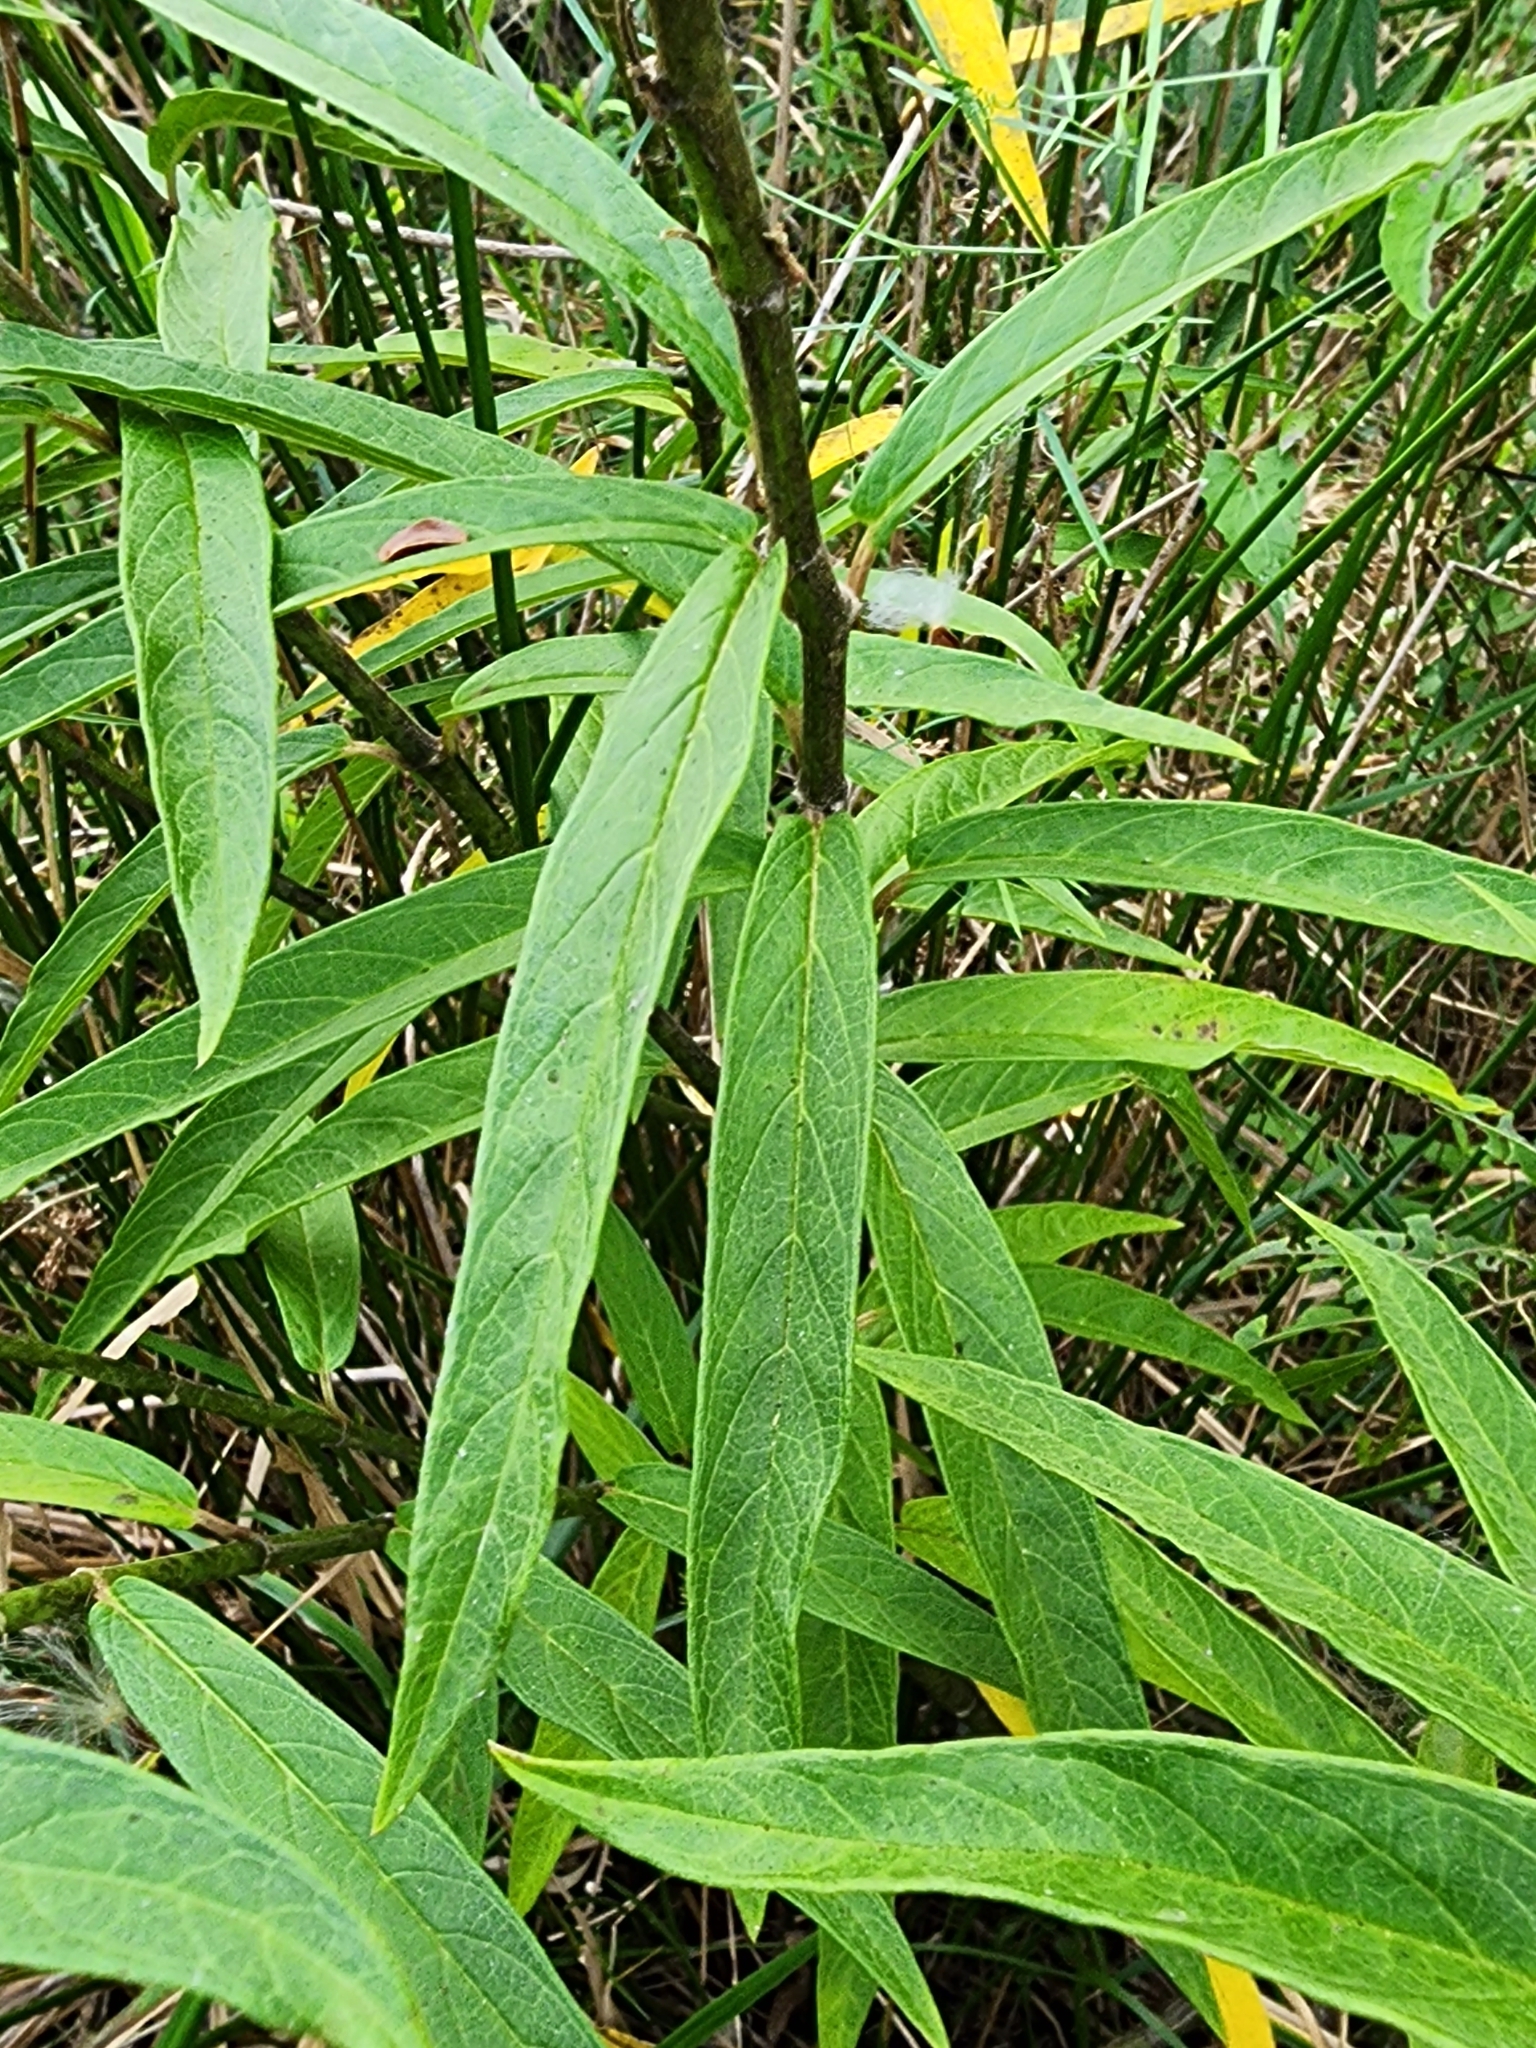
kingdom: Plantae
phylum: Tracheophyta
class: Magnoliopsida
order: Gentianales
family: Apocynaceae
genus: Asclepias
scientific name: Asclepias incarnata
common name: Swamp milkweed
